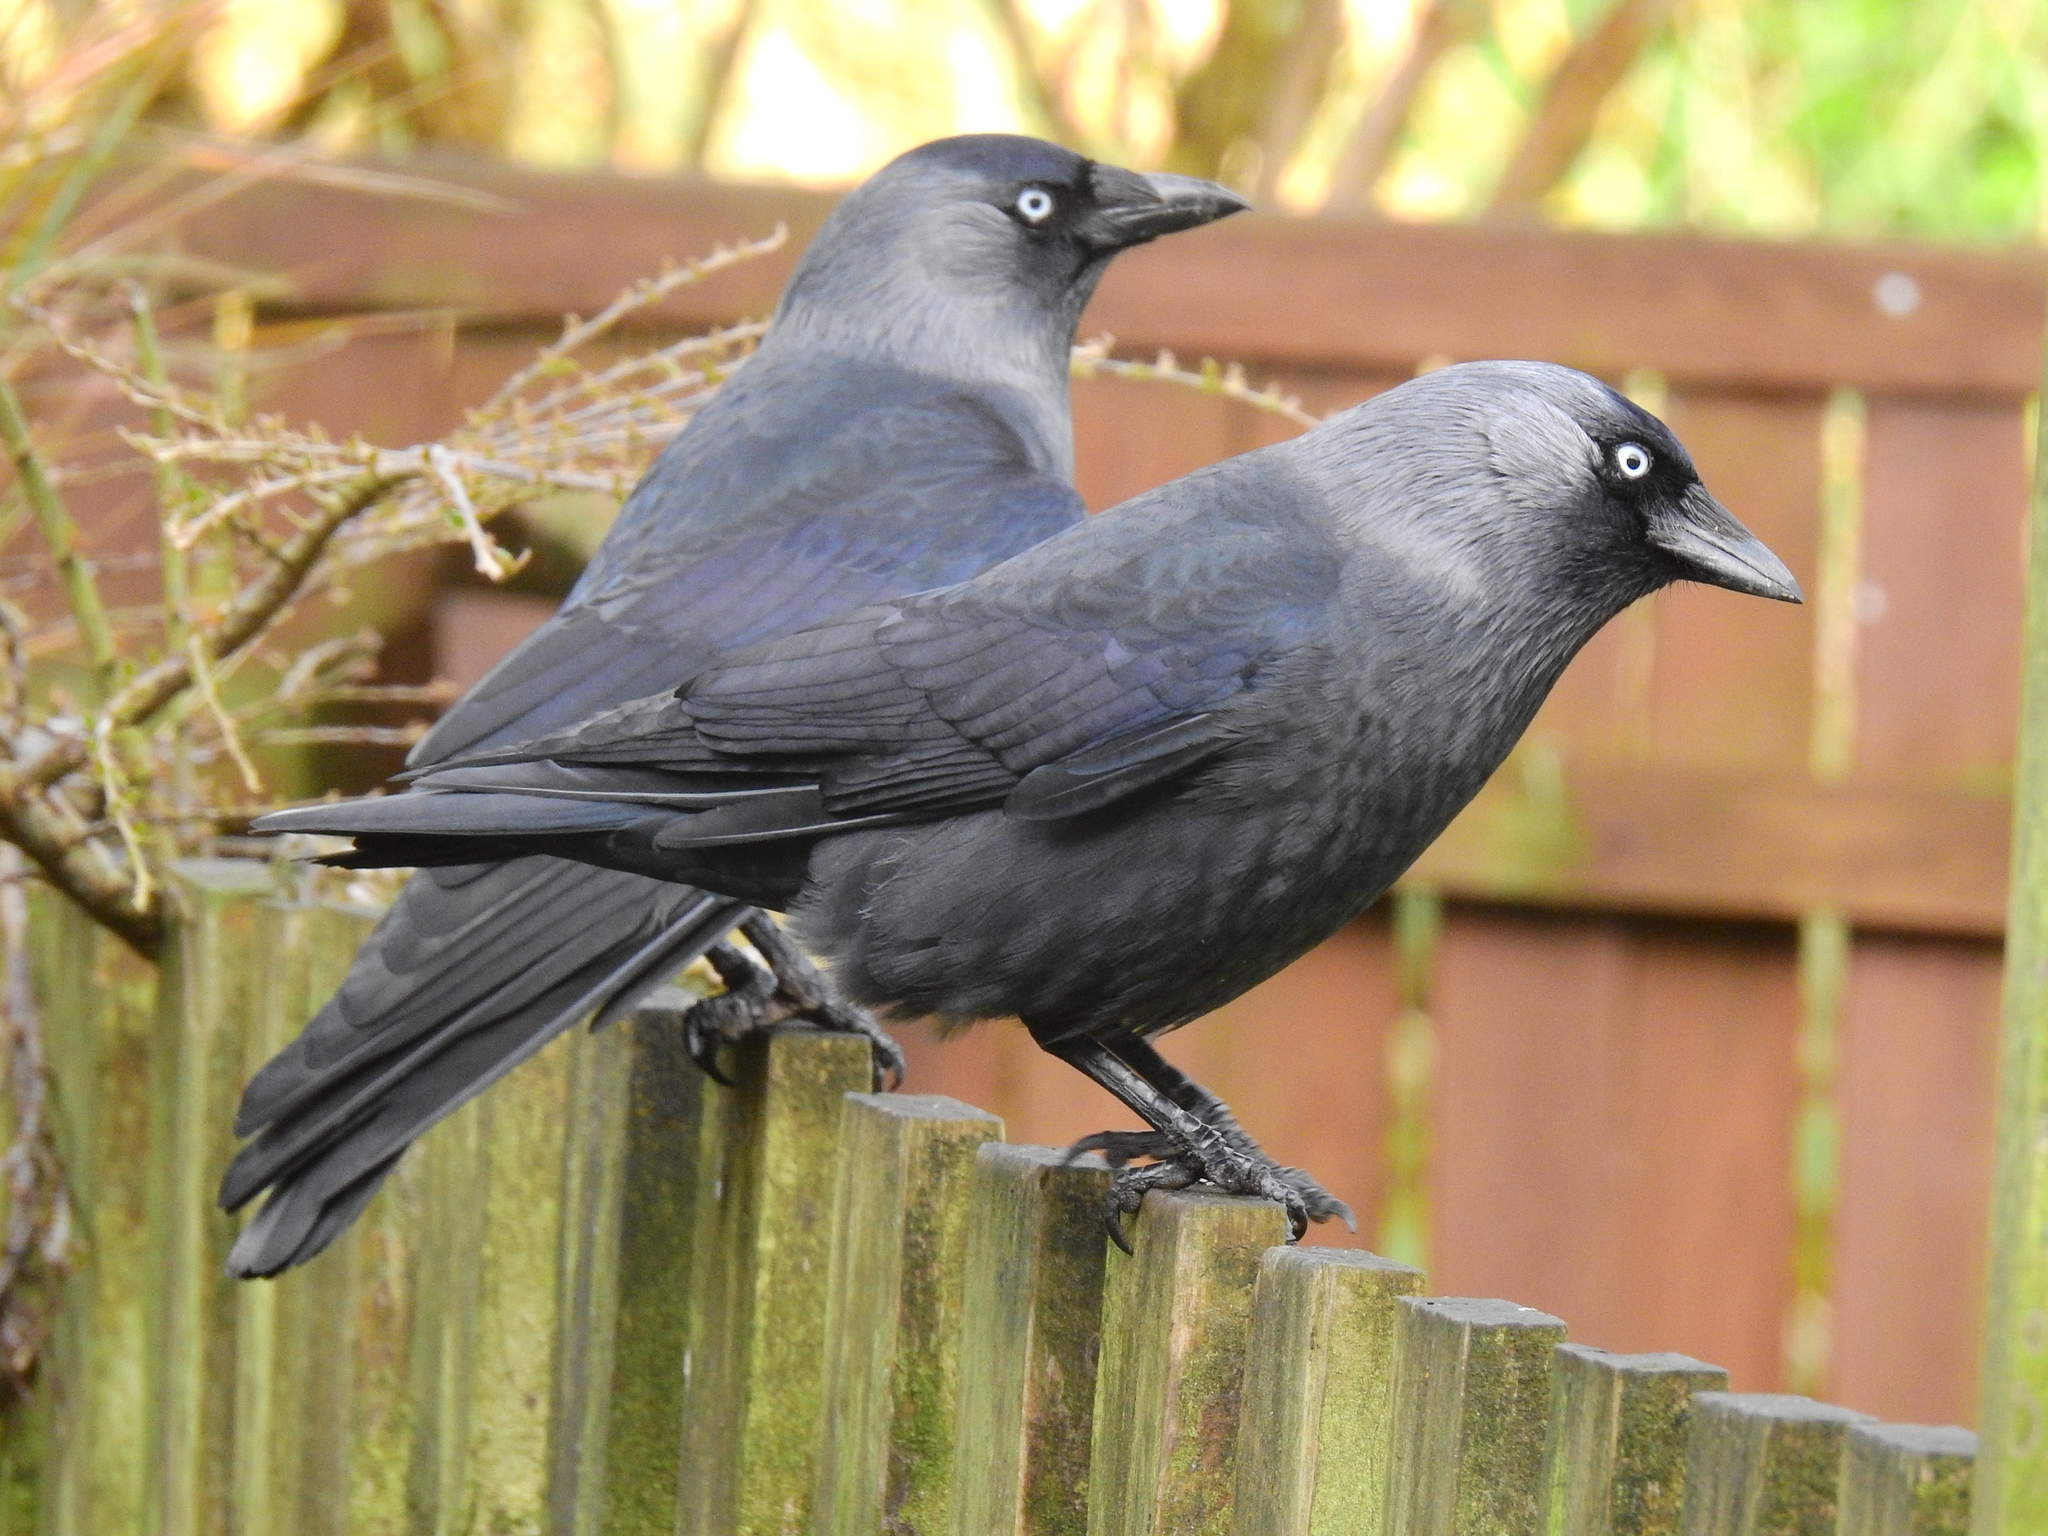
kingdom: Animalia
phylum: Chordata
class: Aves
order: Passeriformes
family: Corvidae
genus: Coloeus
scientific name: Coloeus monedula
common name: Western jackdaw
